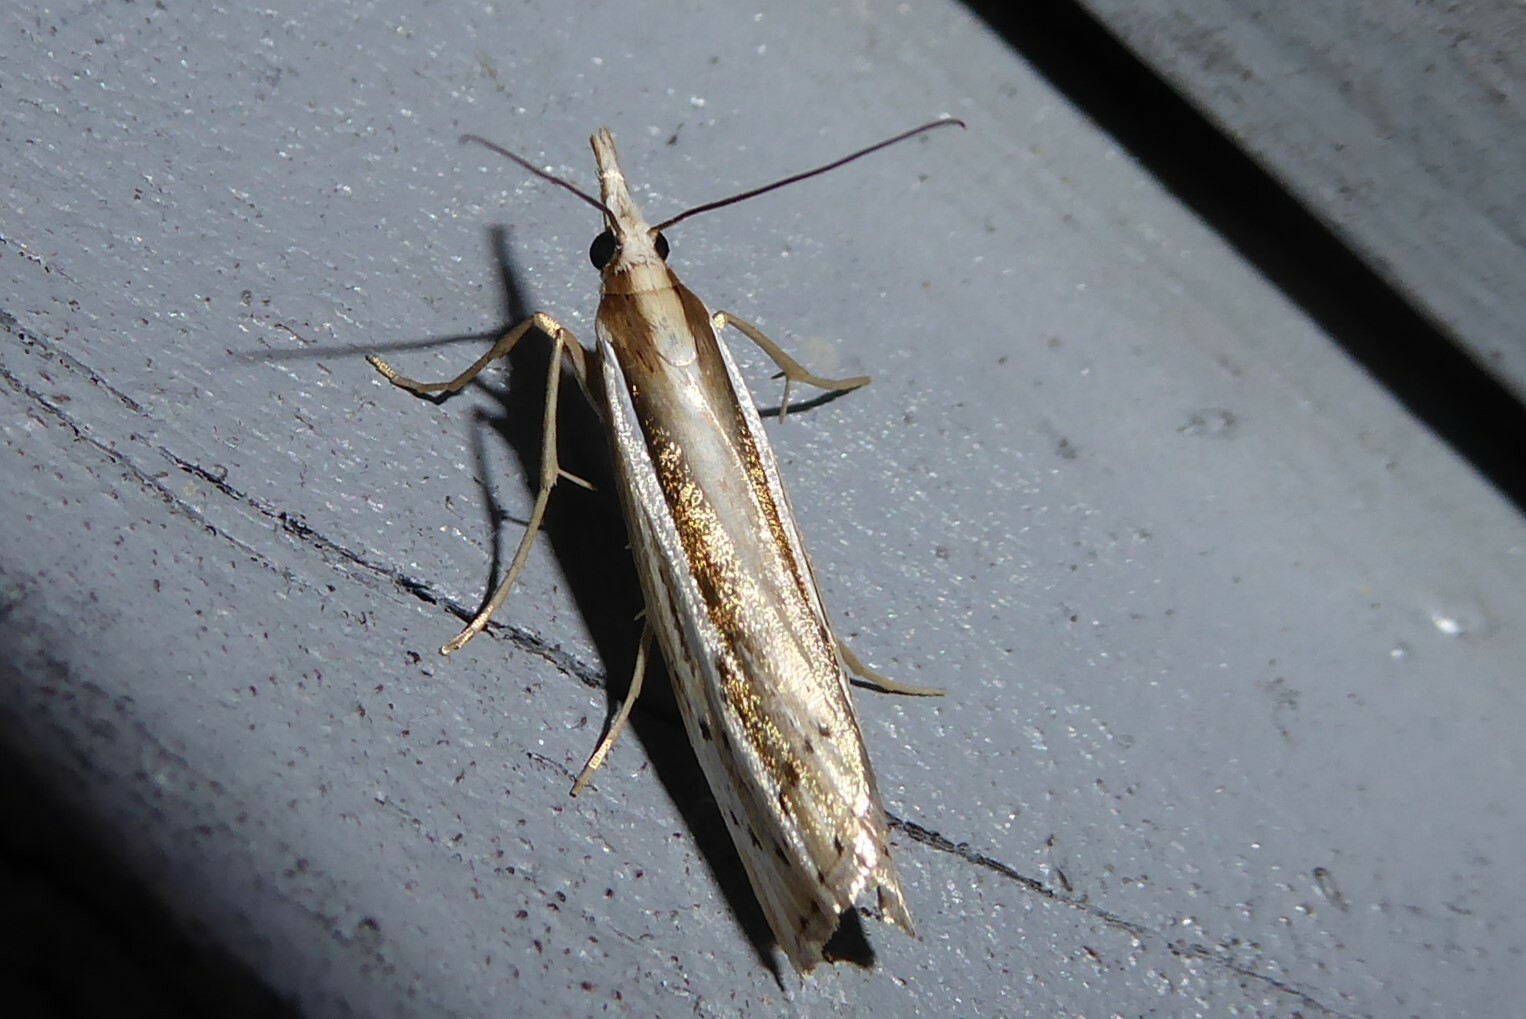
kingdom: Animalia
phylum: Arthropoda
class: Insecta
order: Lepidoptera
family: Crambidae
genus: Orocrambus
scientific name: Orocrambus ramosellus
